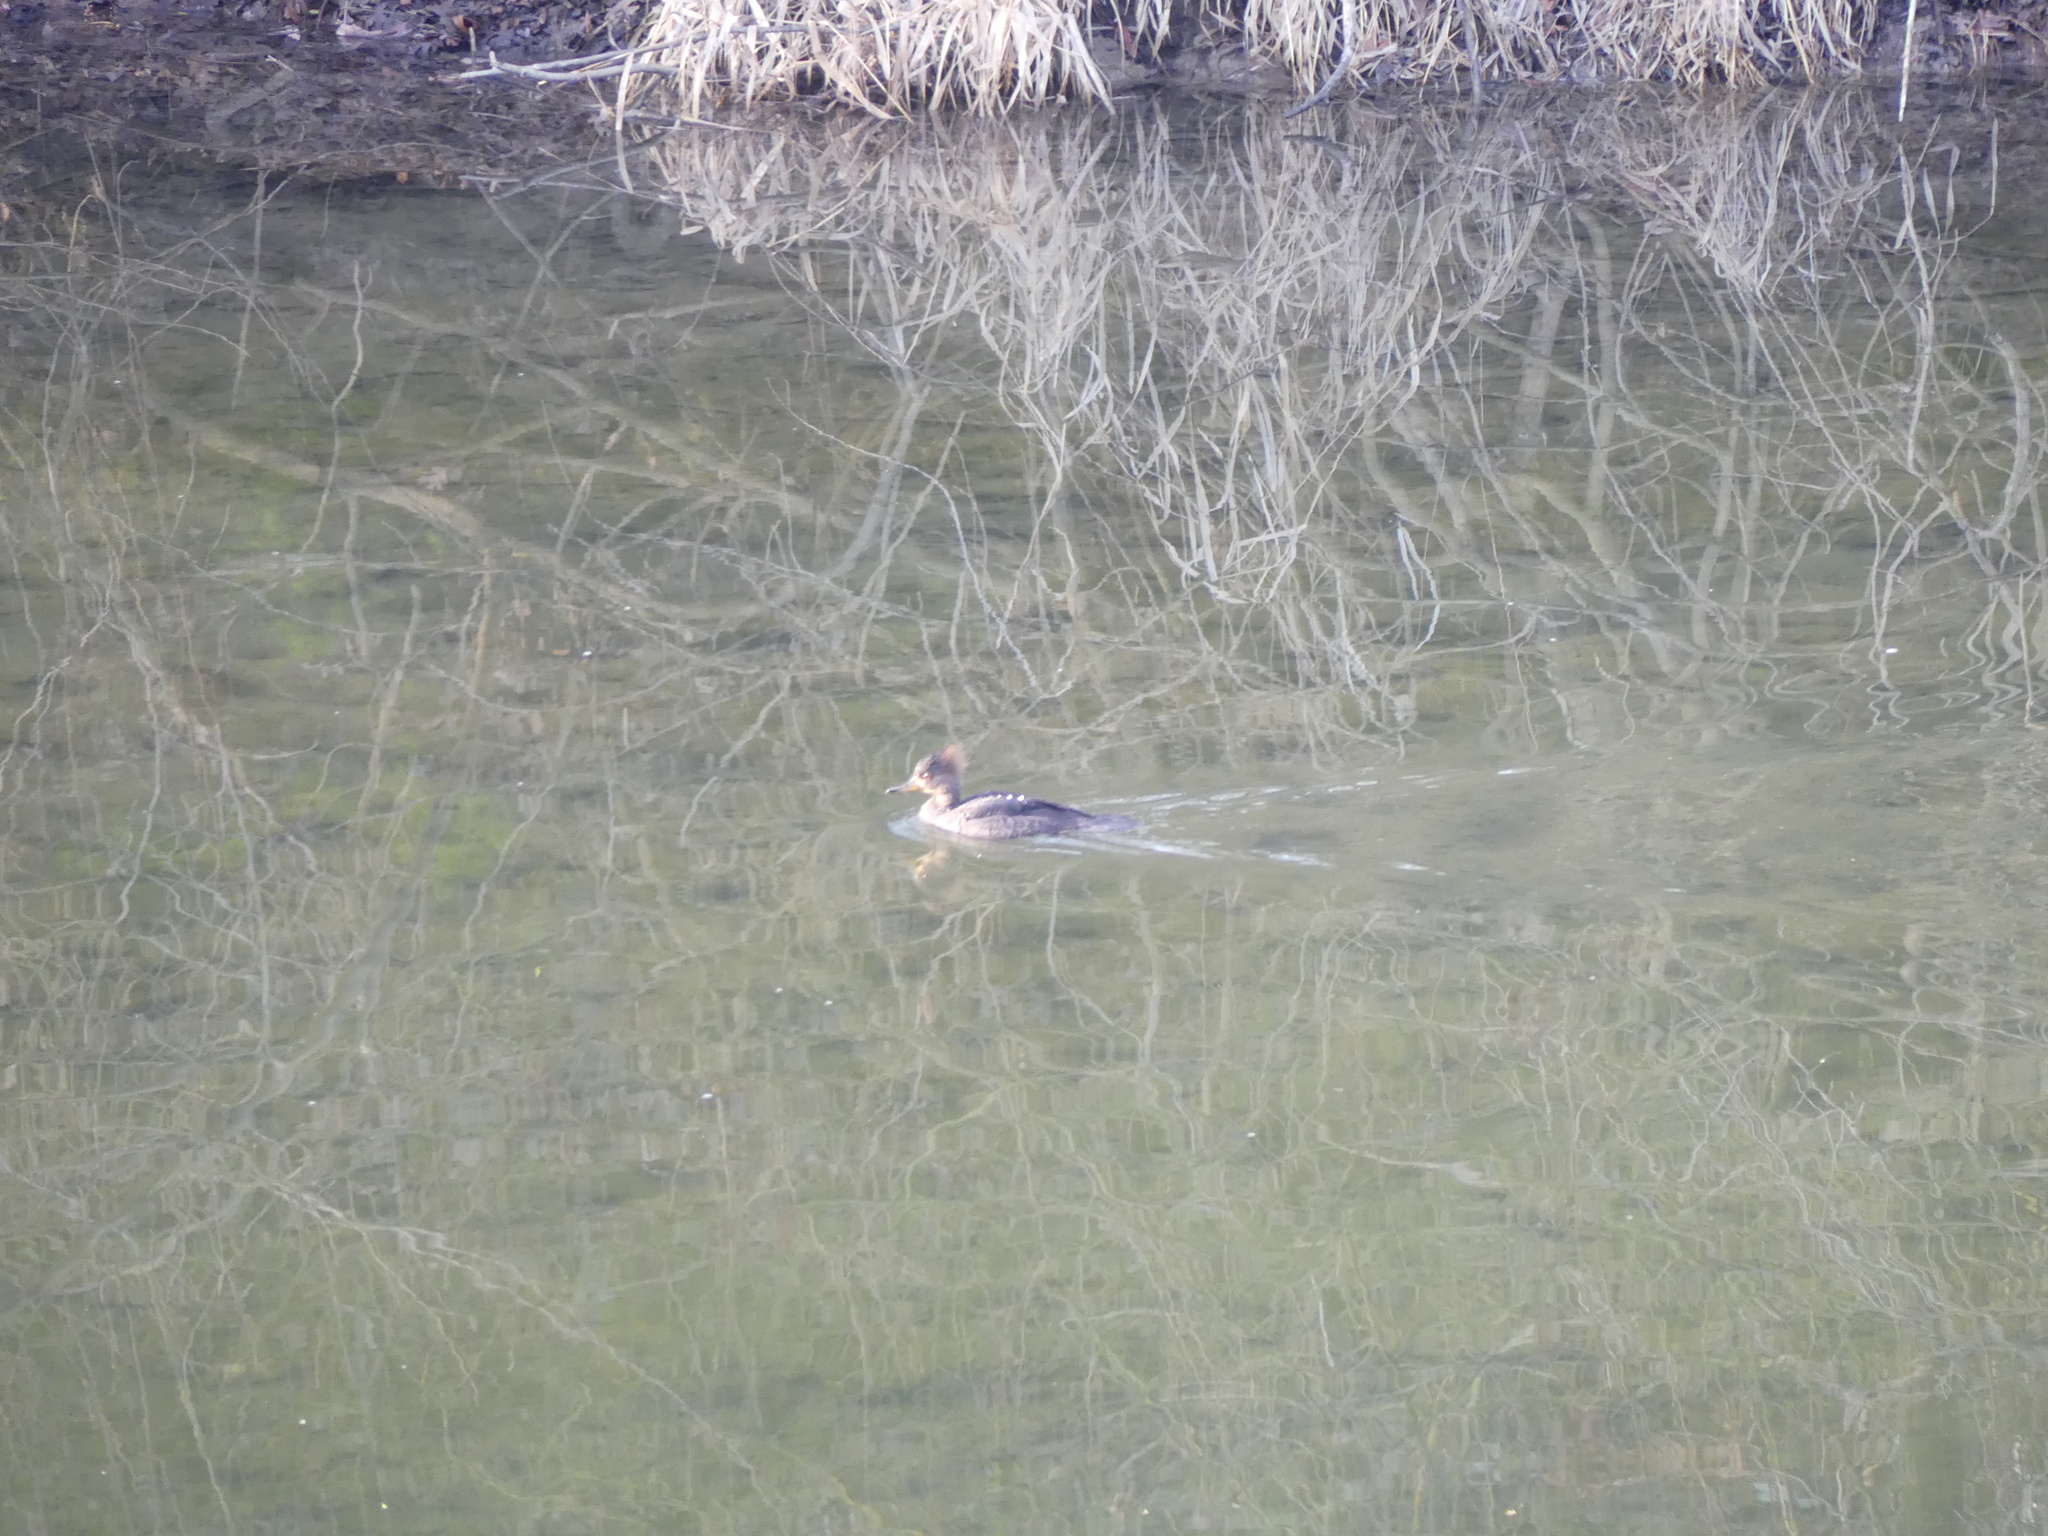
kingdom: Animalia
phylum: Chordata
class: Aves
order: Anseriformes
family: Anatidae
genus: Lophodytes
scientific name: Lophodytes cucullatus
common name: Hooded merganser
